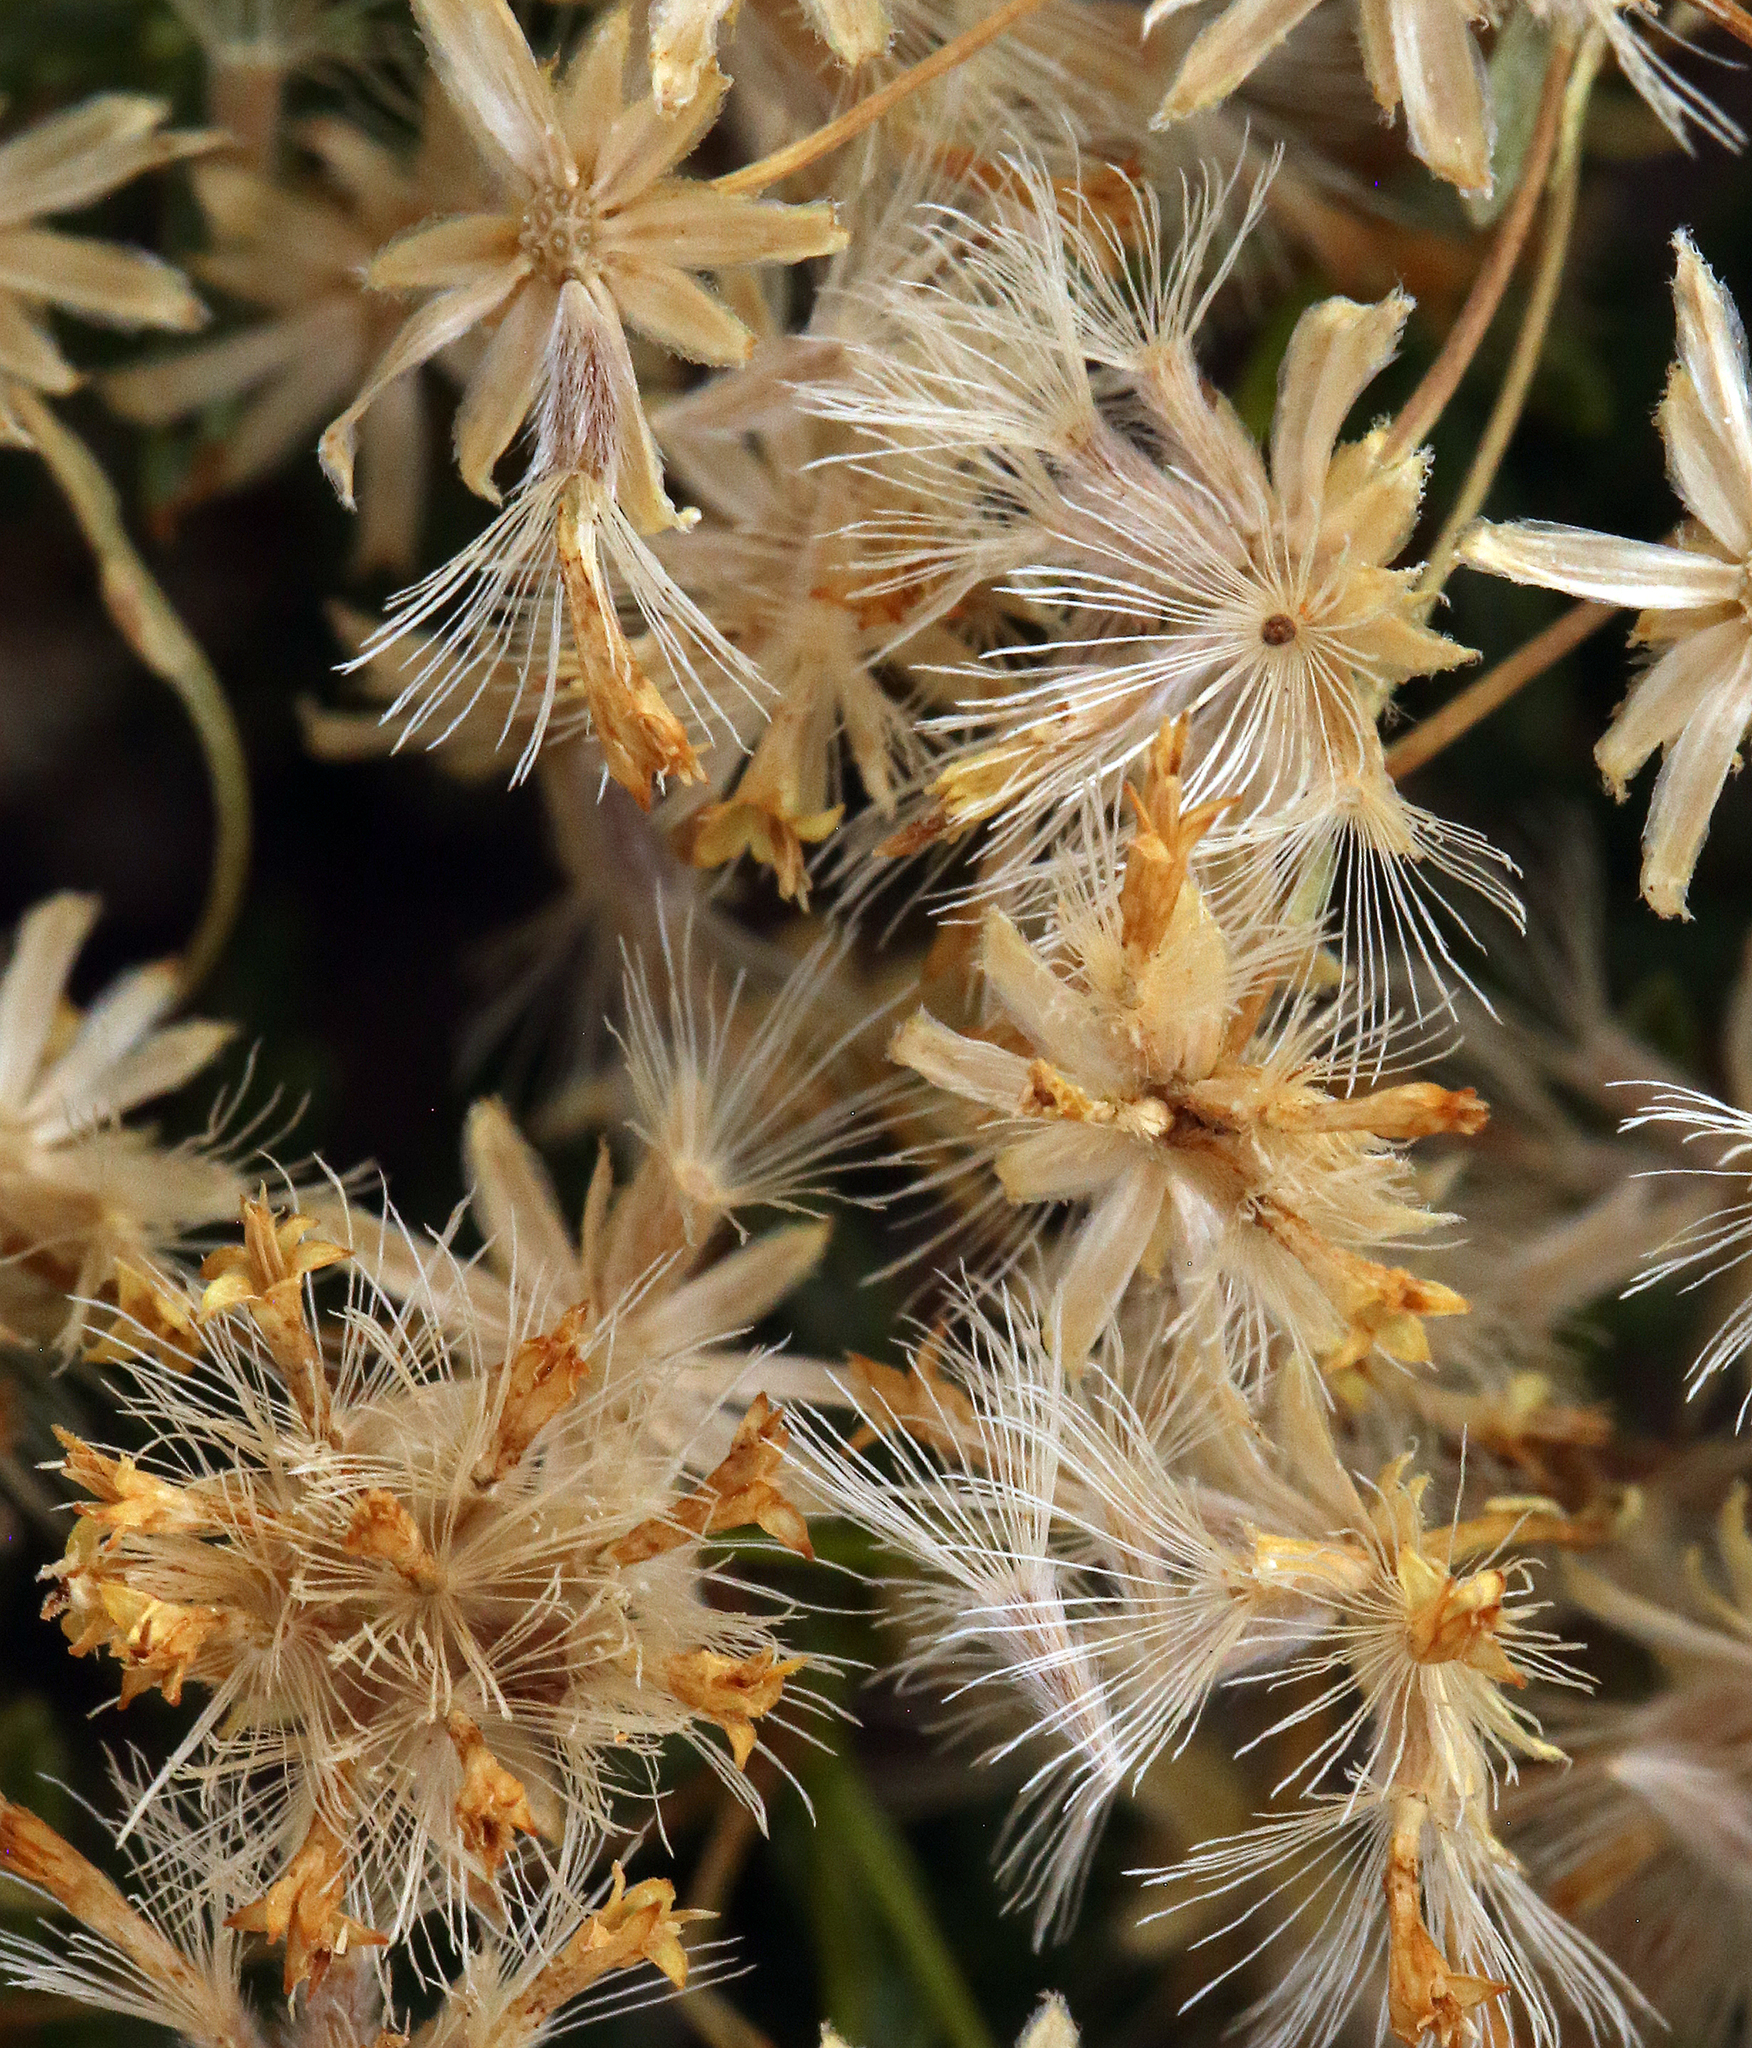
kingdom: Plantae
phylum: Tracheophyta
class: Magnoliopsida
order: Asterales
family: Asteraceae
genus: Ericameria
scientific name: Ericameria cooperi
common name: Cooper's goldenbush
